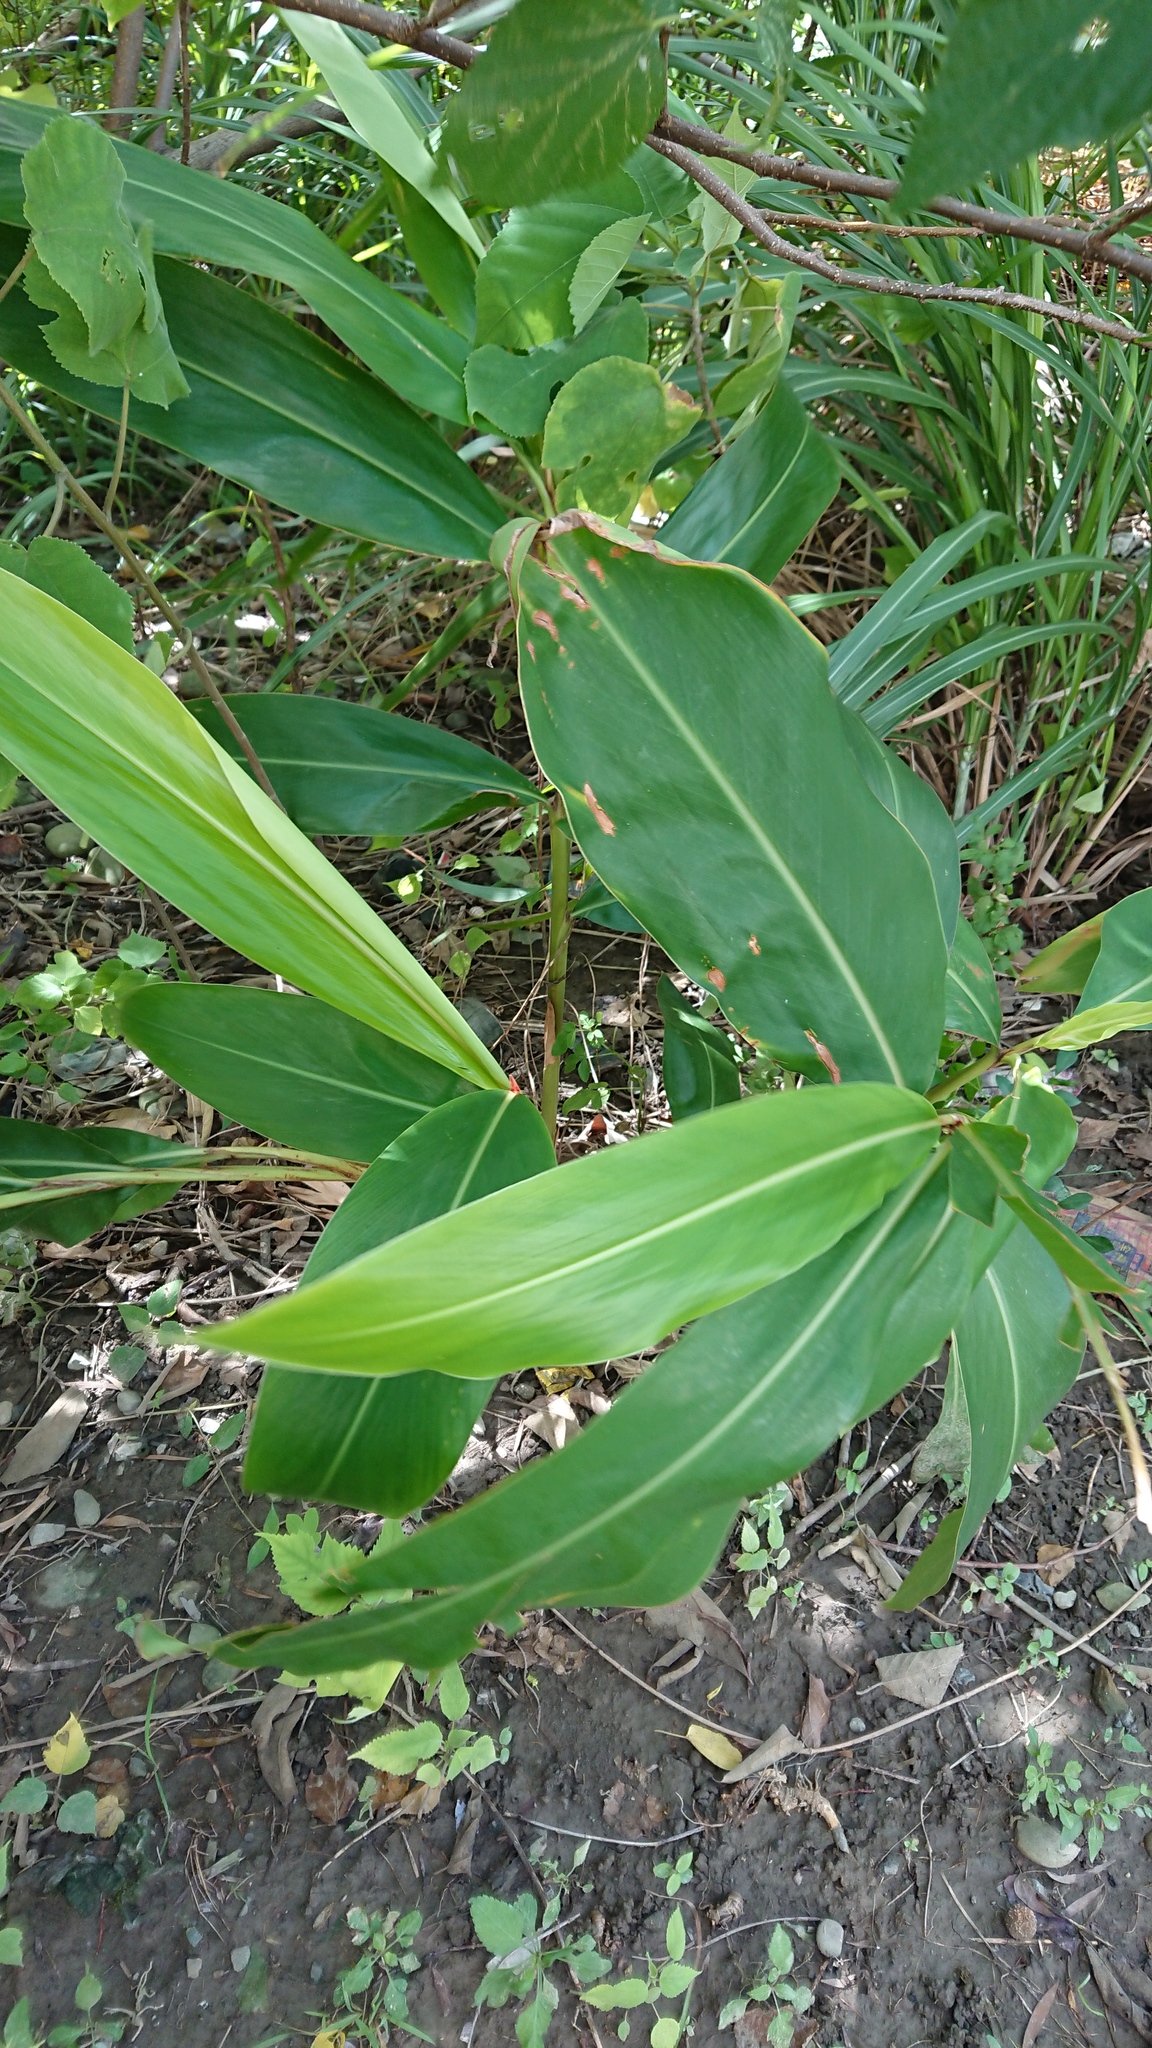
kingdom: Plantae
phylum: Tracheophyta
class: Liliopsida
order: Zingiberales
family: Zingiberaceae
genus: Alpinia
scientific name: Alpinia zerumbet
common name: Shellplant
